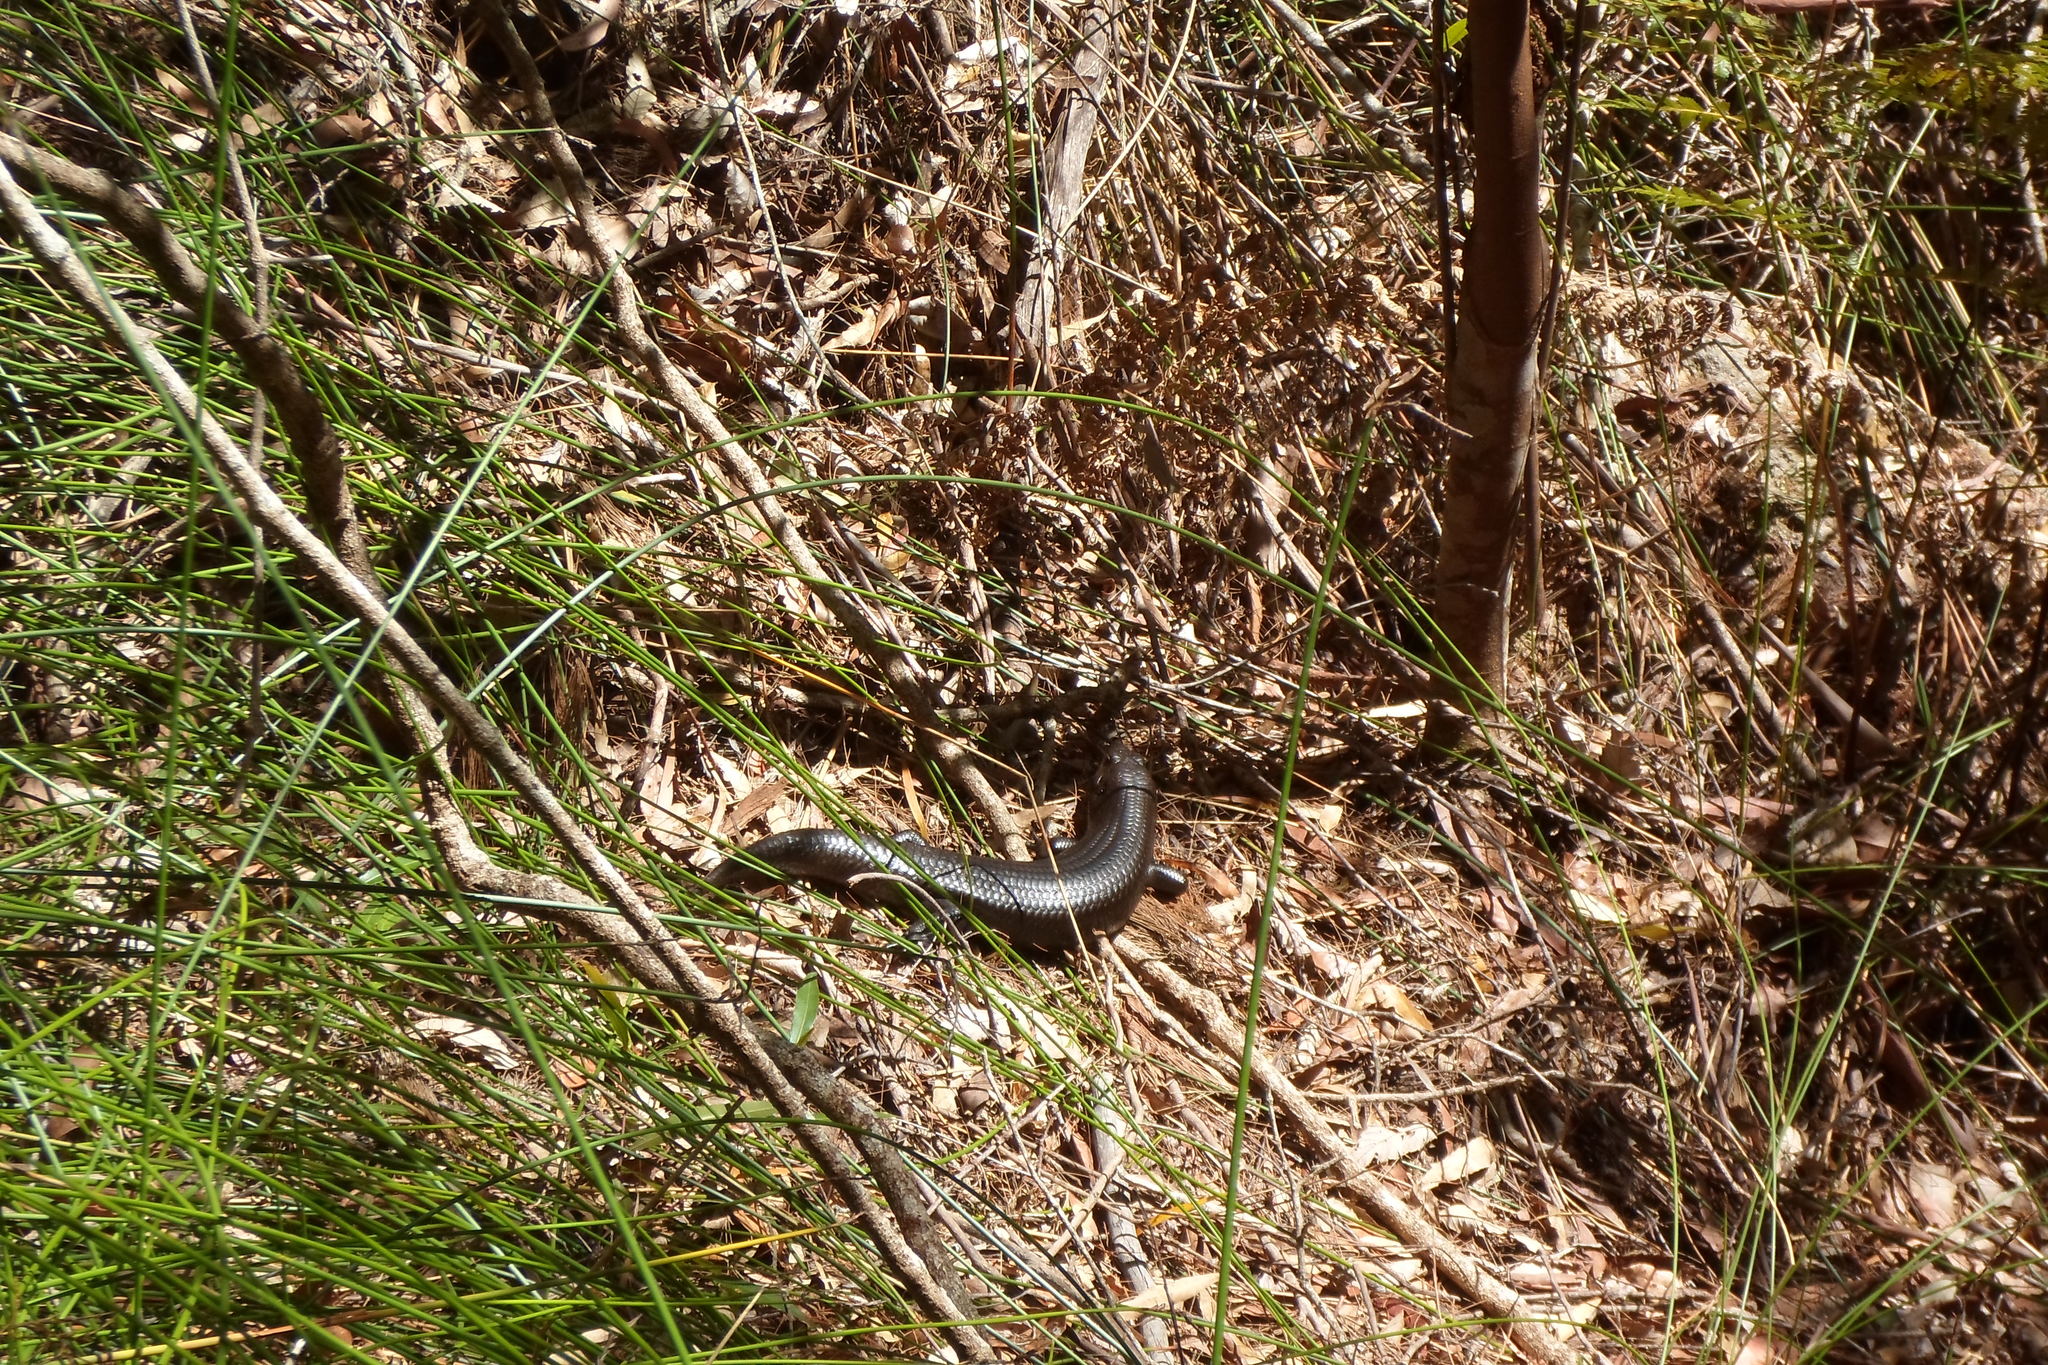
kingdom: Animalia
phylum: Chordata
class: Squamata
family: Scincidae
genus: Bellatorias
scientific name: Bellatorias major
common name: Land mullet
